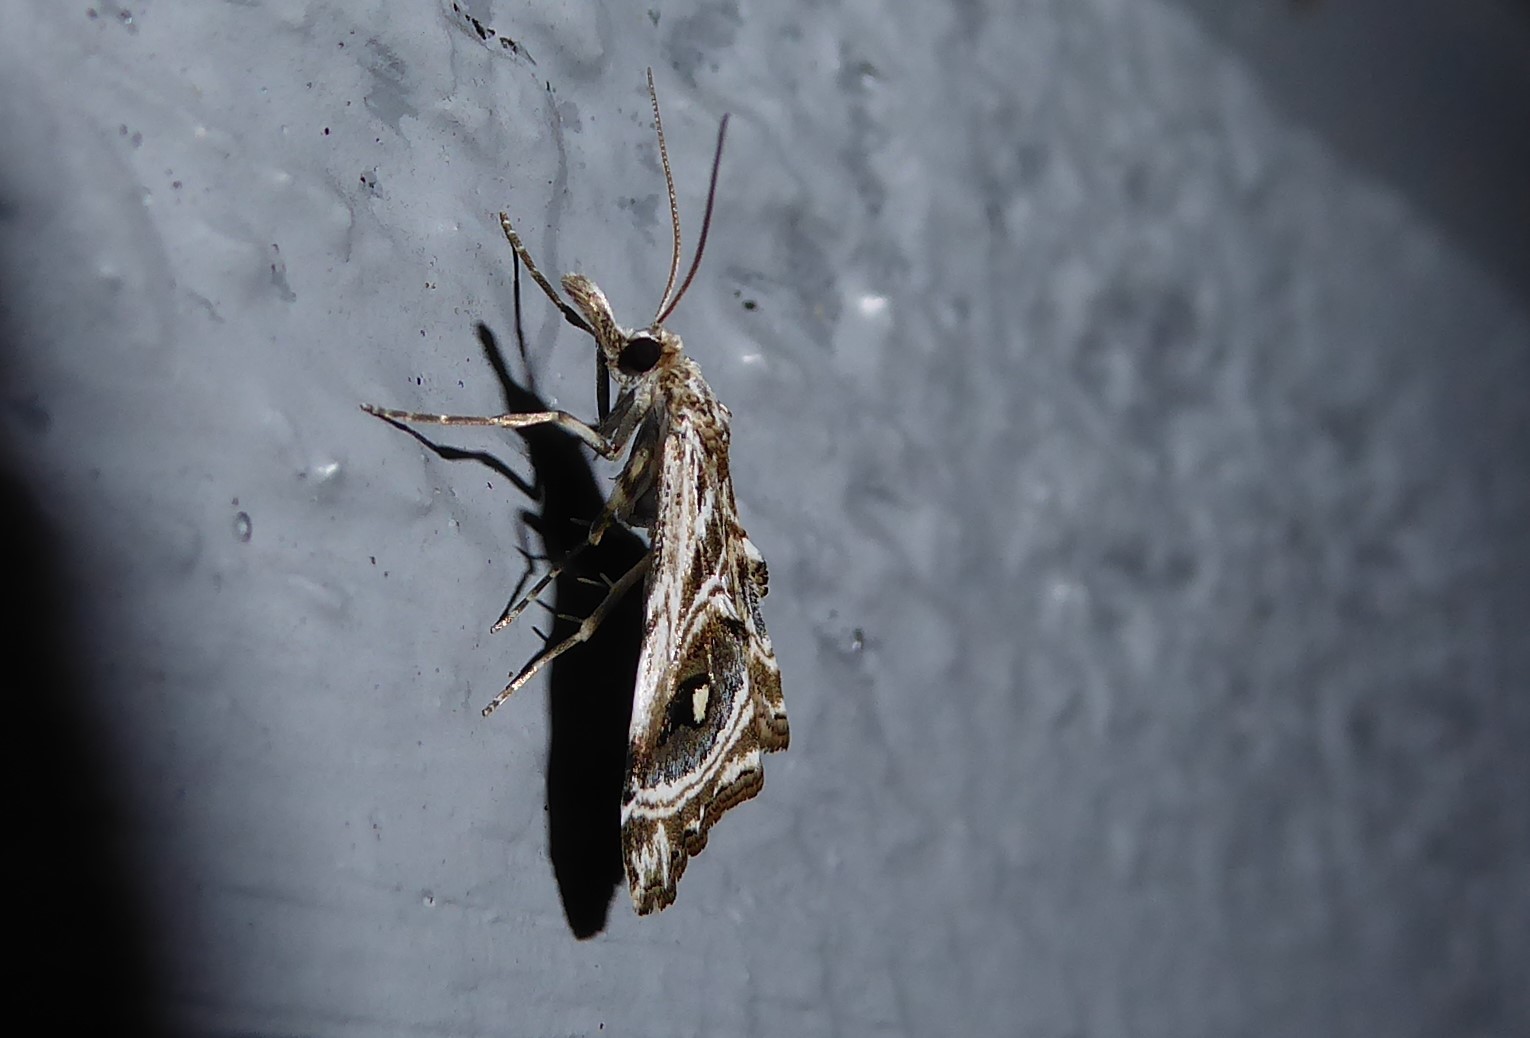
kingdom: Animalia
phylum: Arthropoda
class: Insecta
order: Lepidoptera
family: Crambidae
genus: Gadira
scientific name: Gadira acerella
